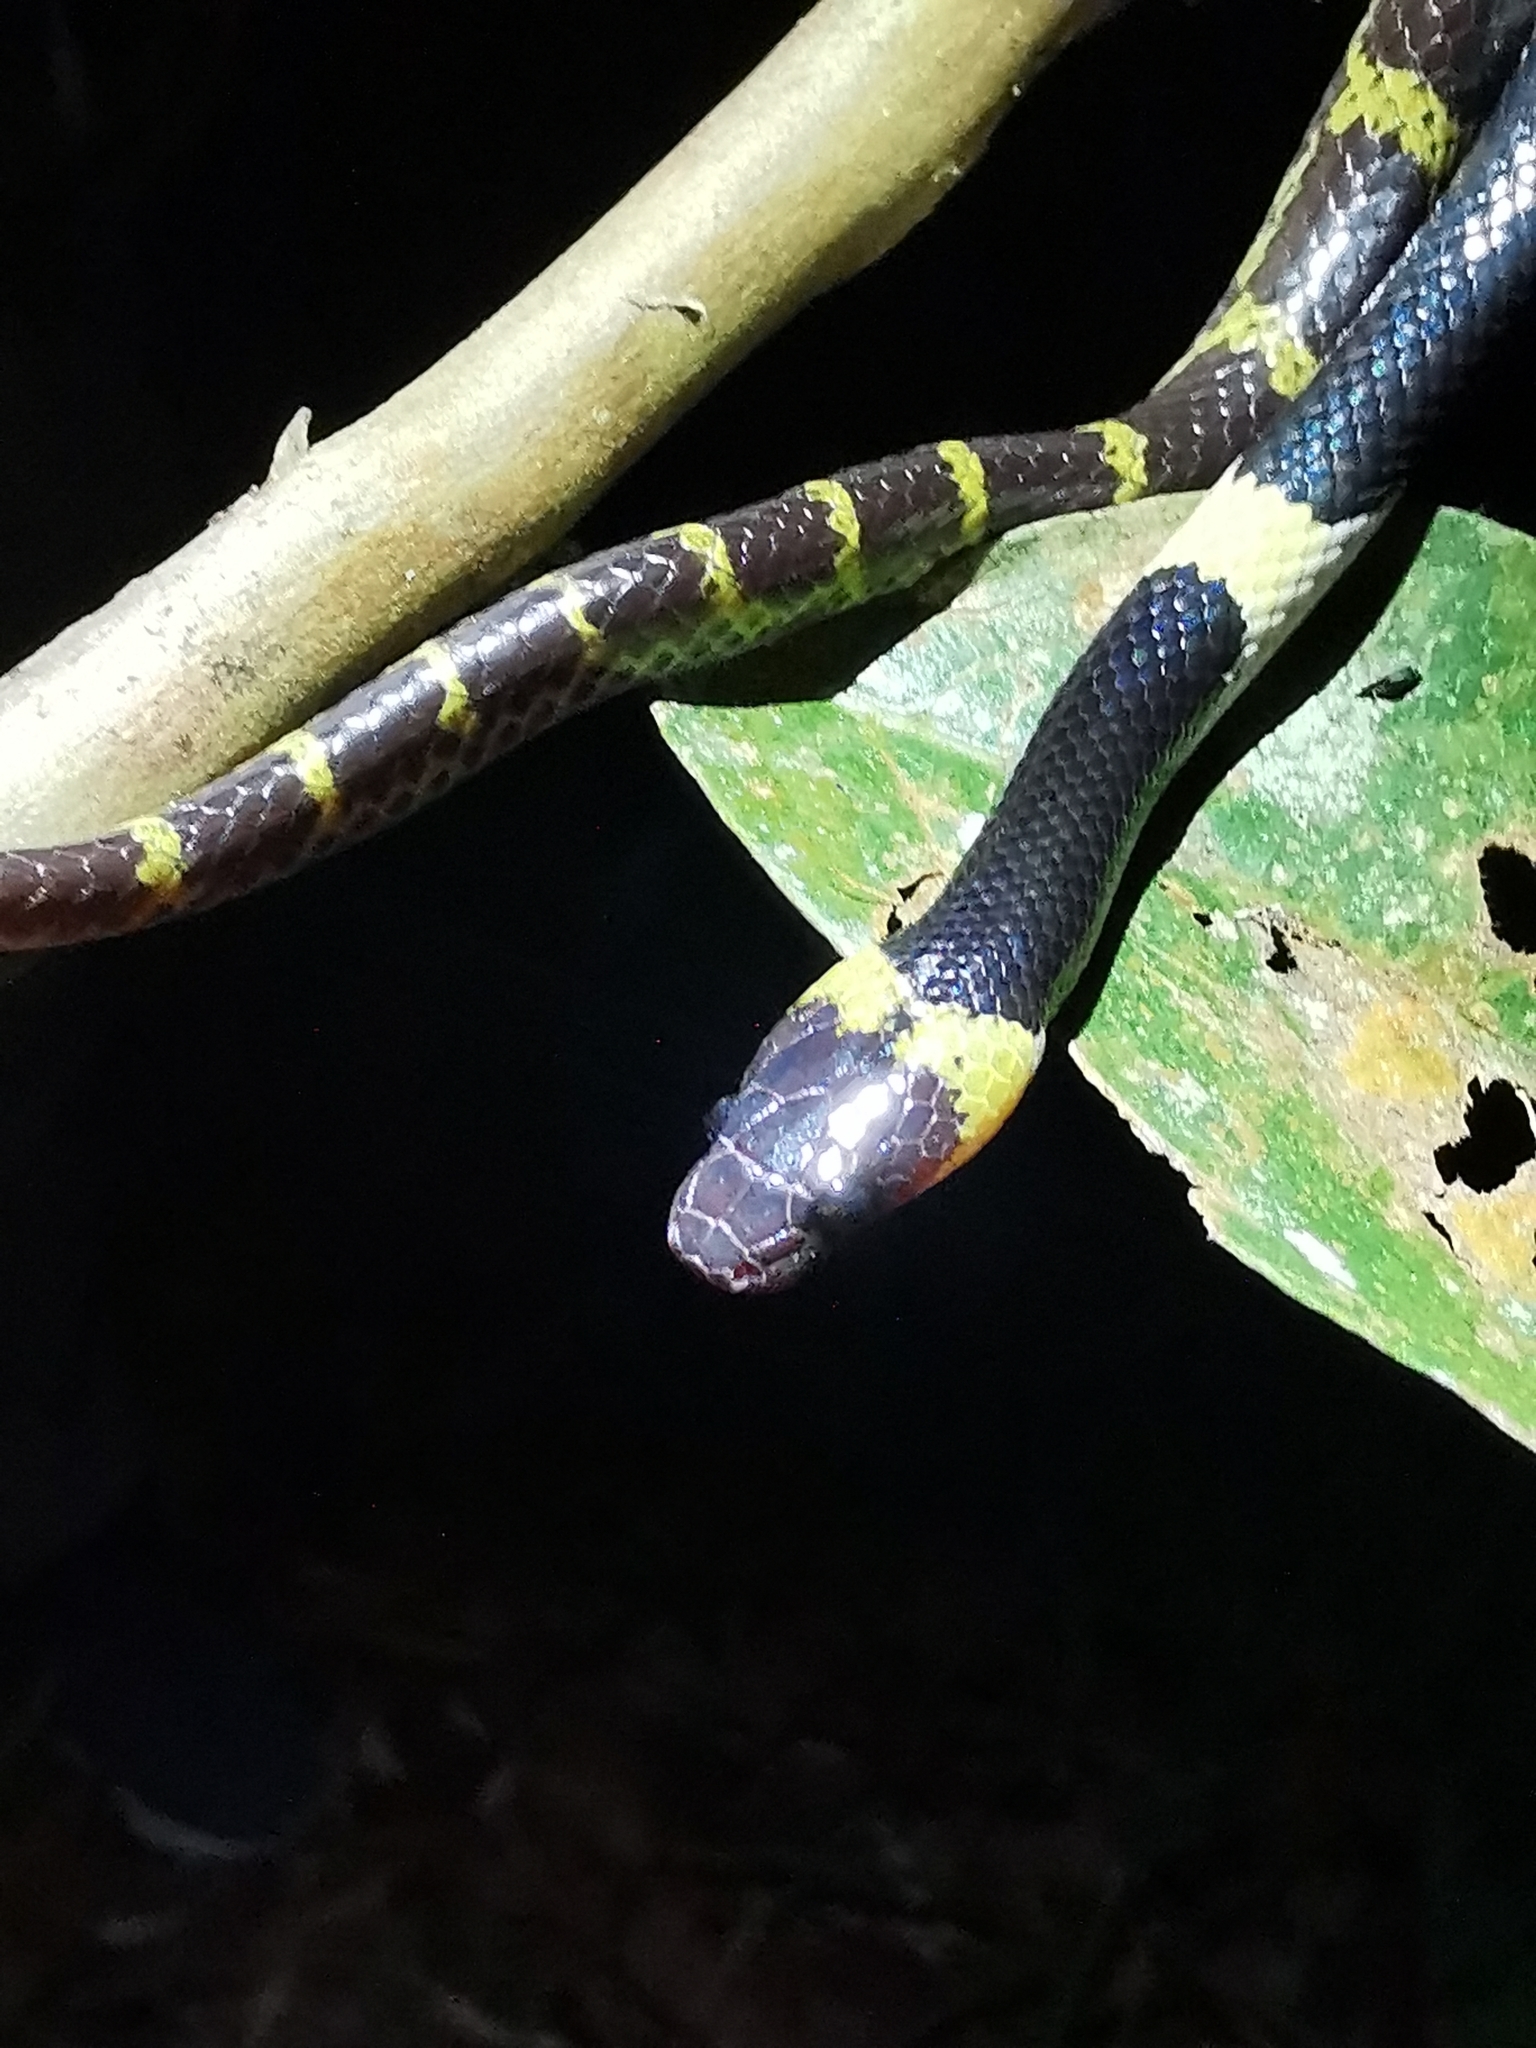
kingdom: Animalia
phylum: Chordata
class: Squamata
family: Colubridae
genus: Lycodon
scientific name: Lycodon laoensis
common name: Laotian wolf snake
